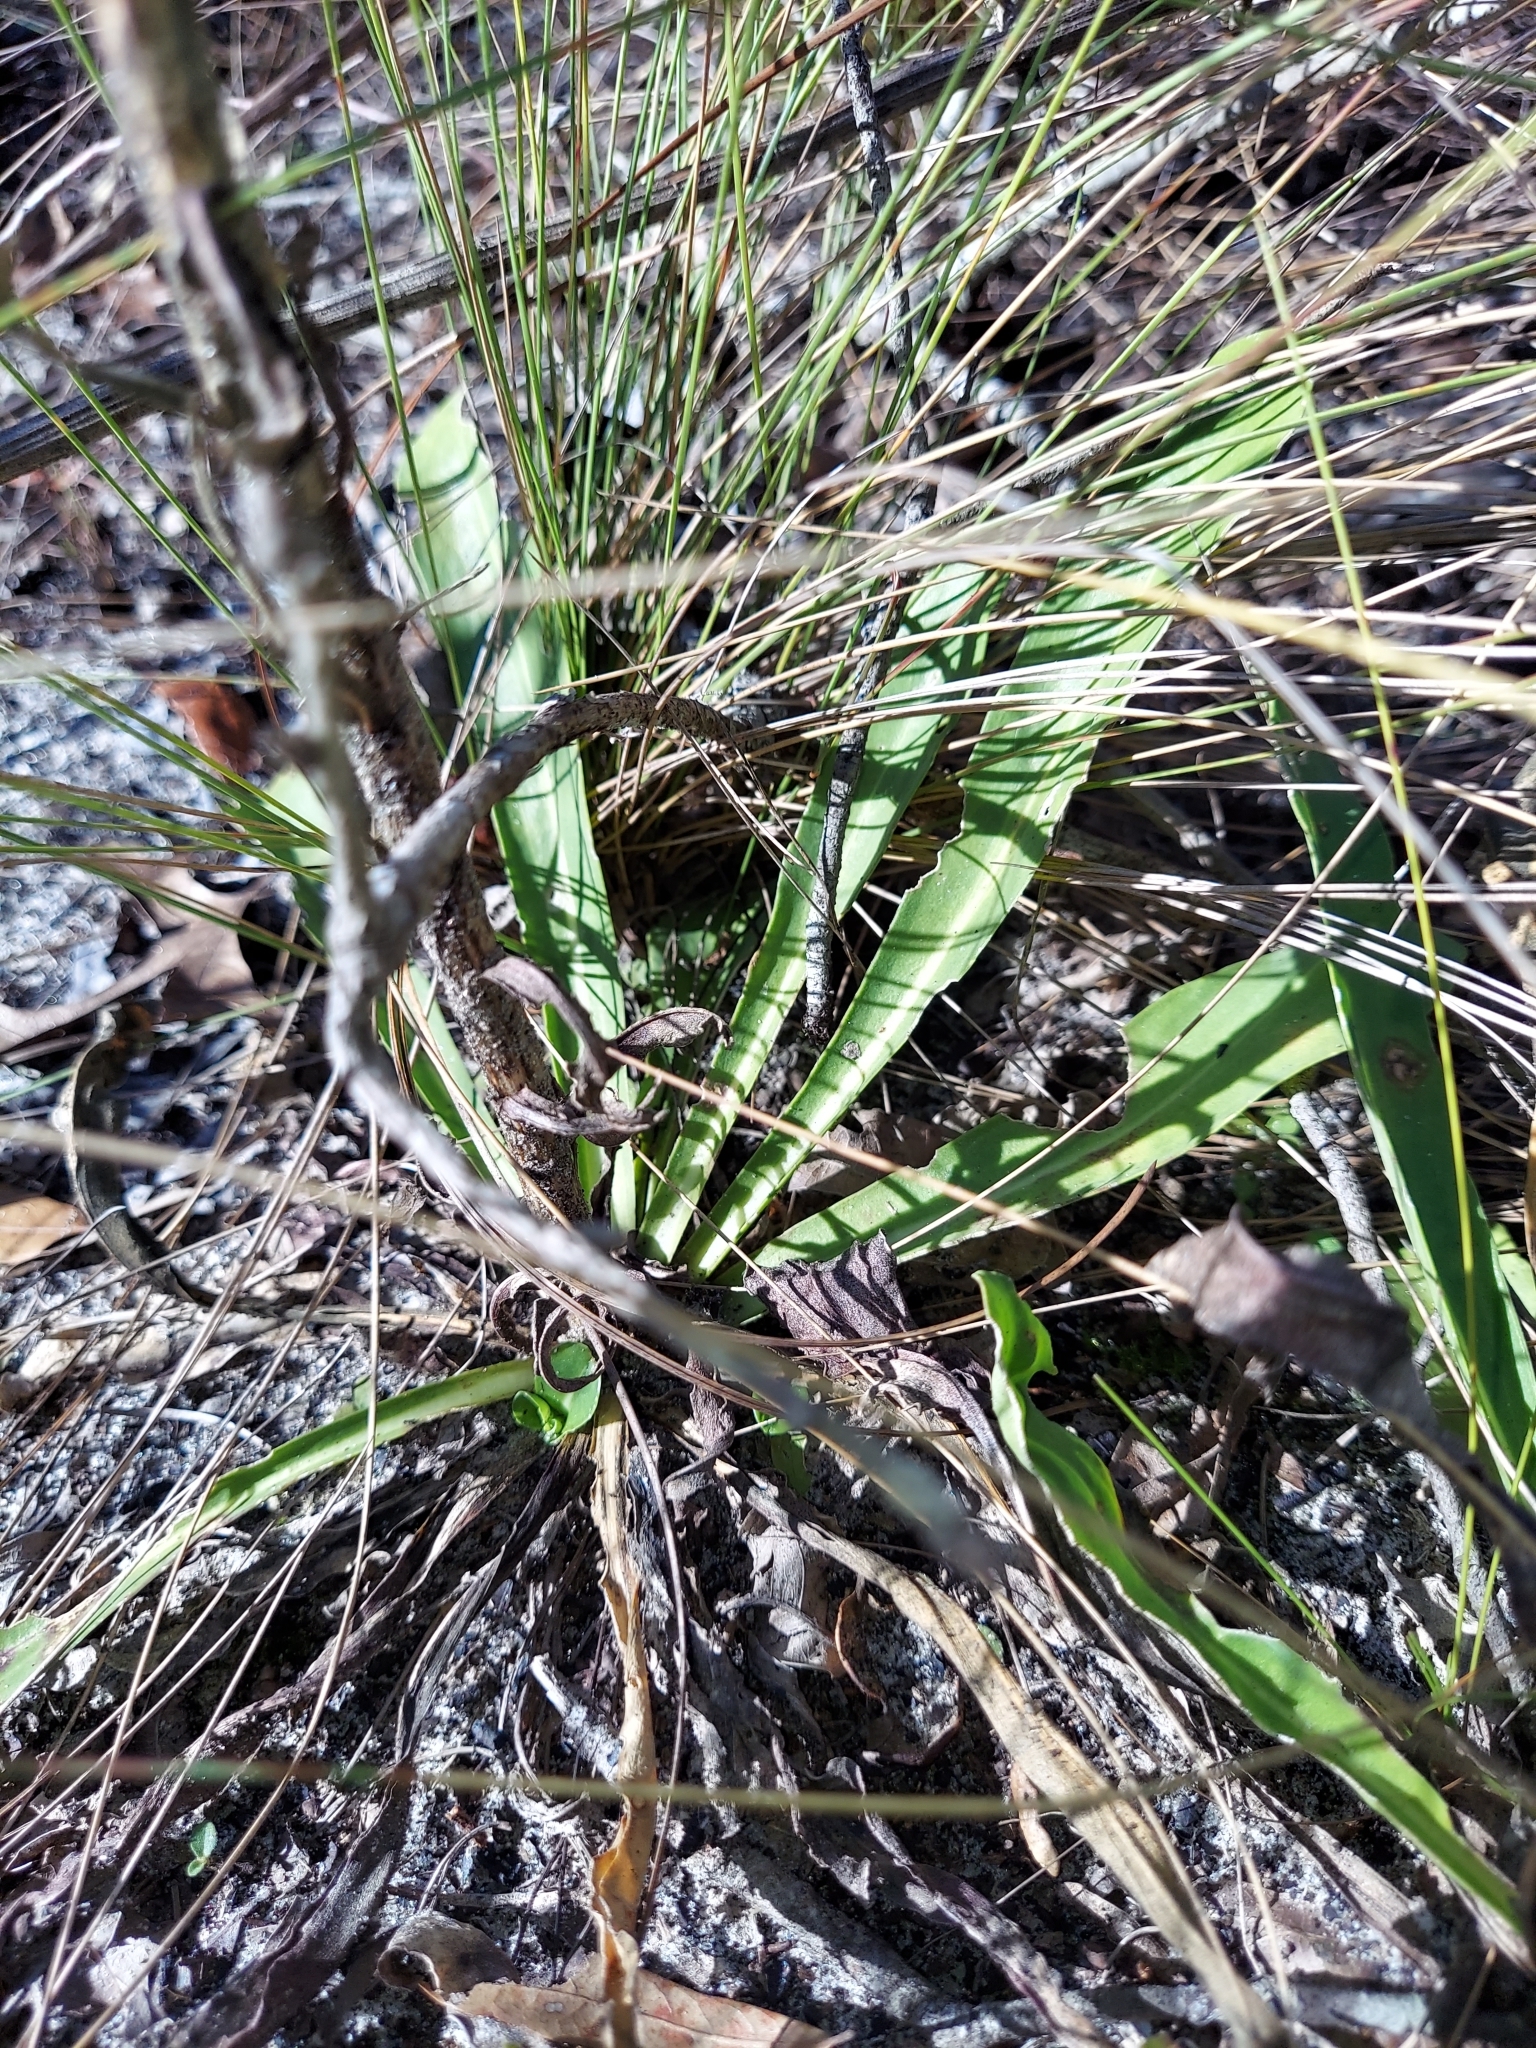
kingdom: Plantae
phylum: Tracheophyta
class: Magnoliopsida
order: Asterales
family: Asteraceae
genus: Carphephorus
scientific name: Carphephorus corymbosus
